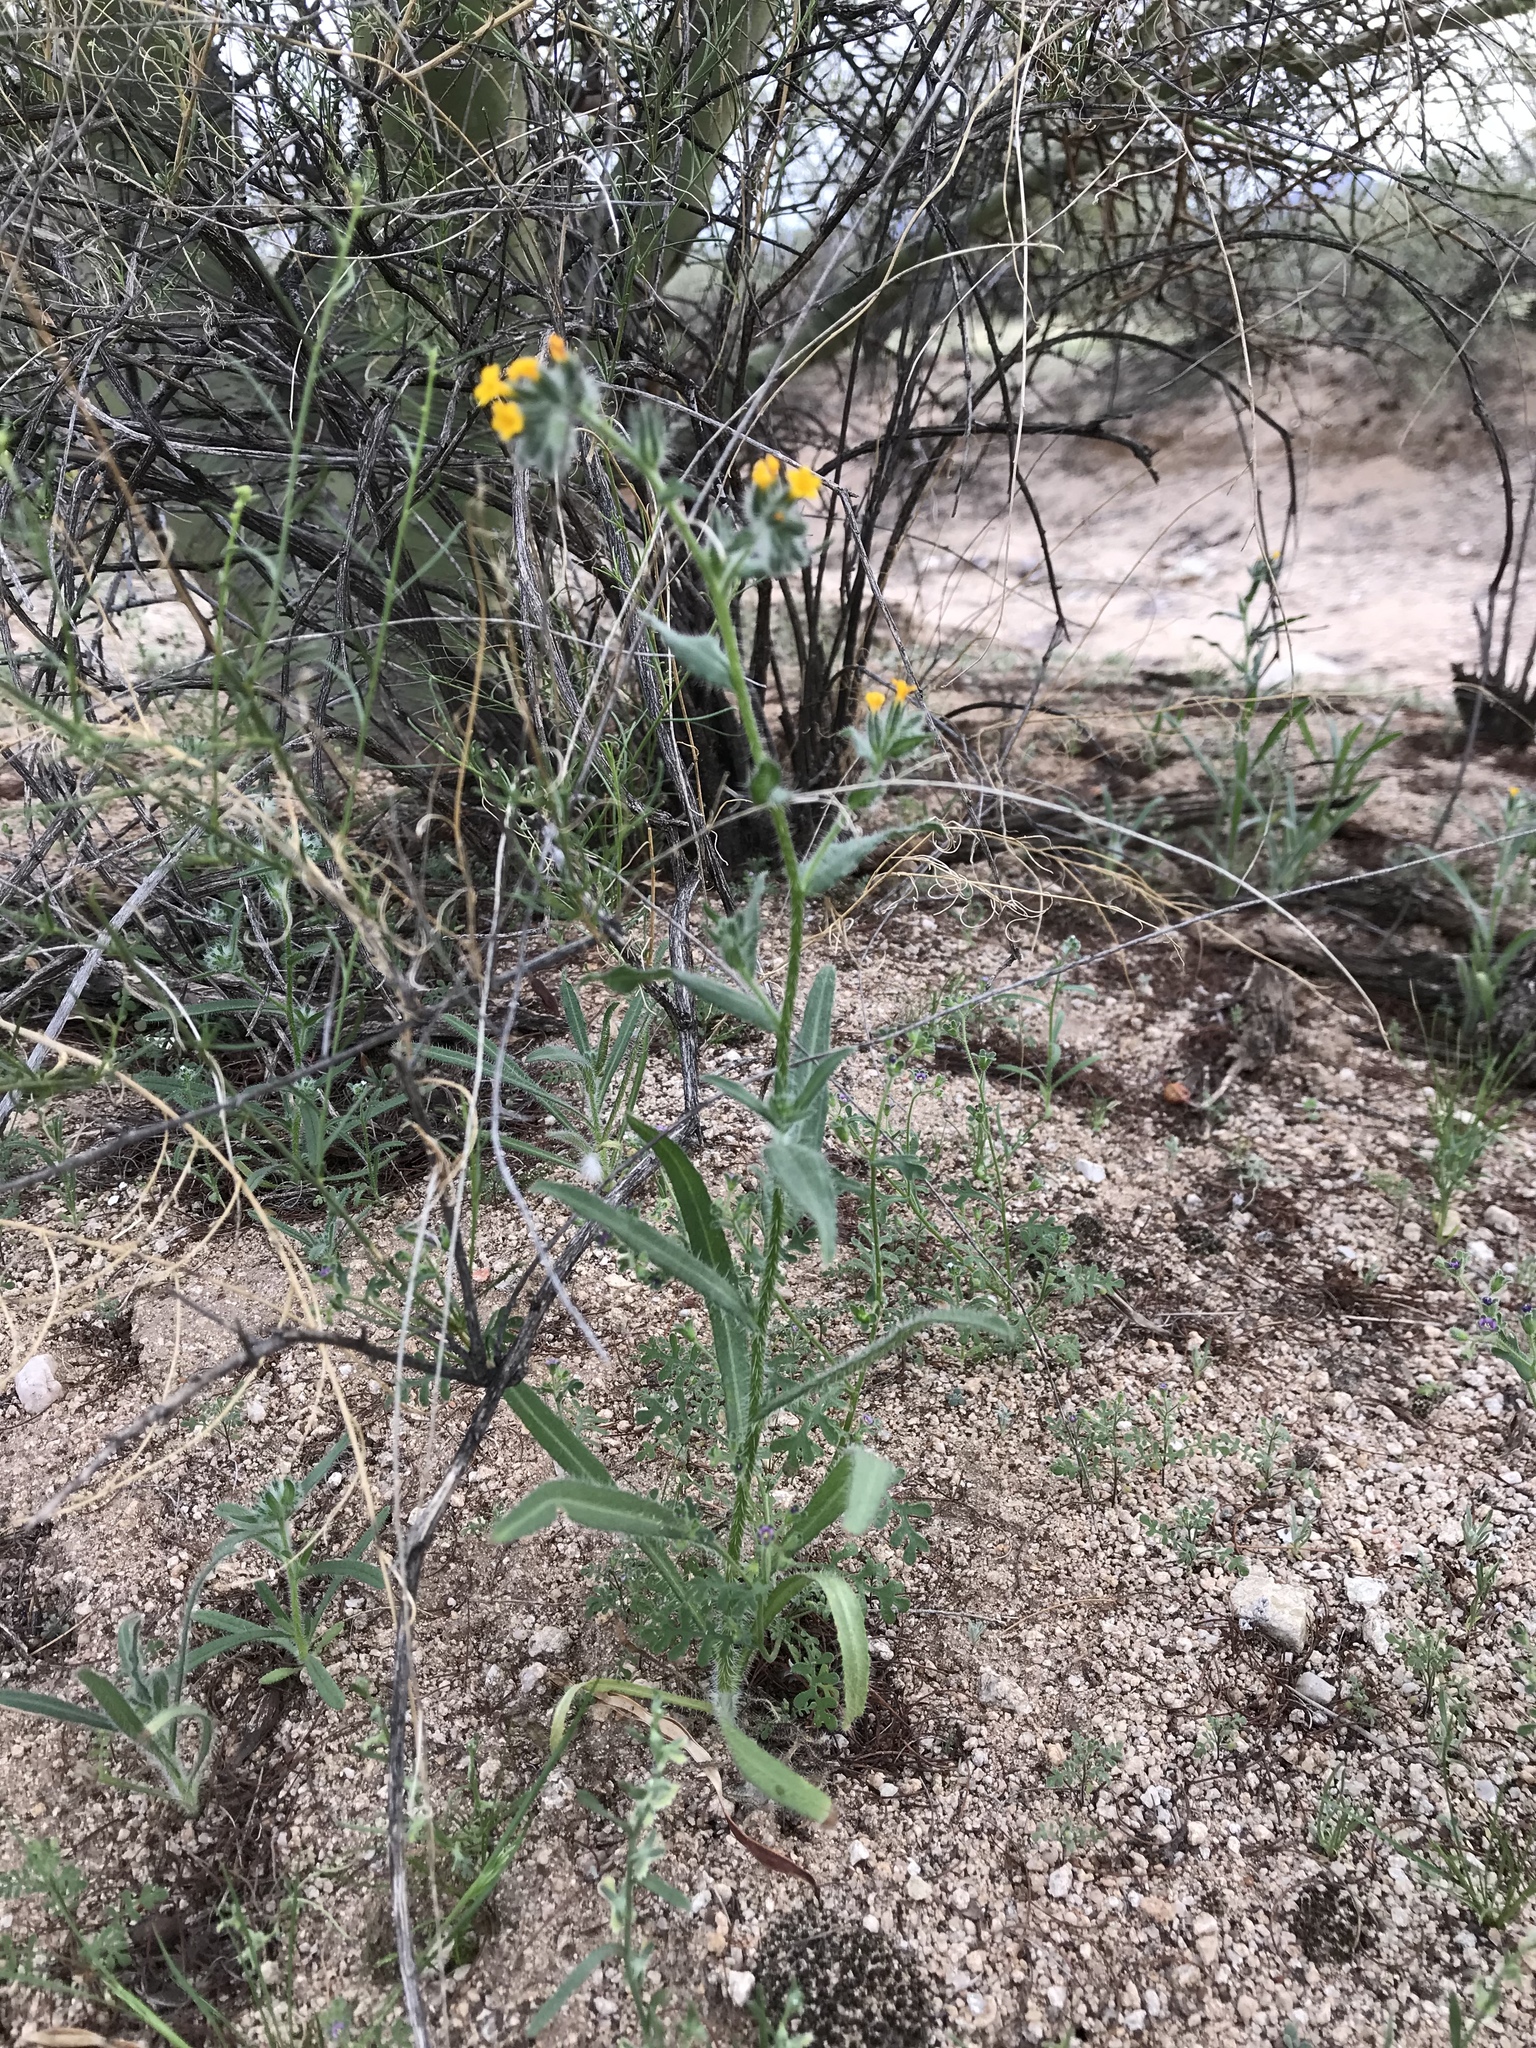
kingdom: Plantae
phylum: Tracheophyta
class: Magnoliopsida
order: Boraginales
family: Boraginaceae
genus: Amsinckia
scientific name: Amsinckia menziesii
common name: Menzies' fiddleneck
